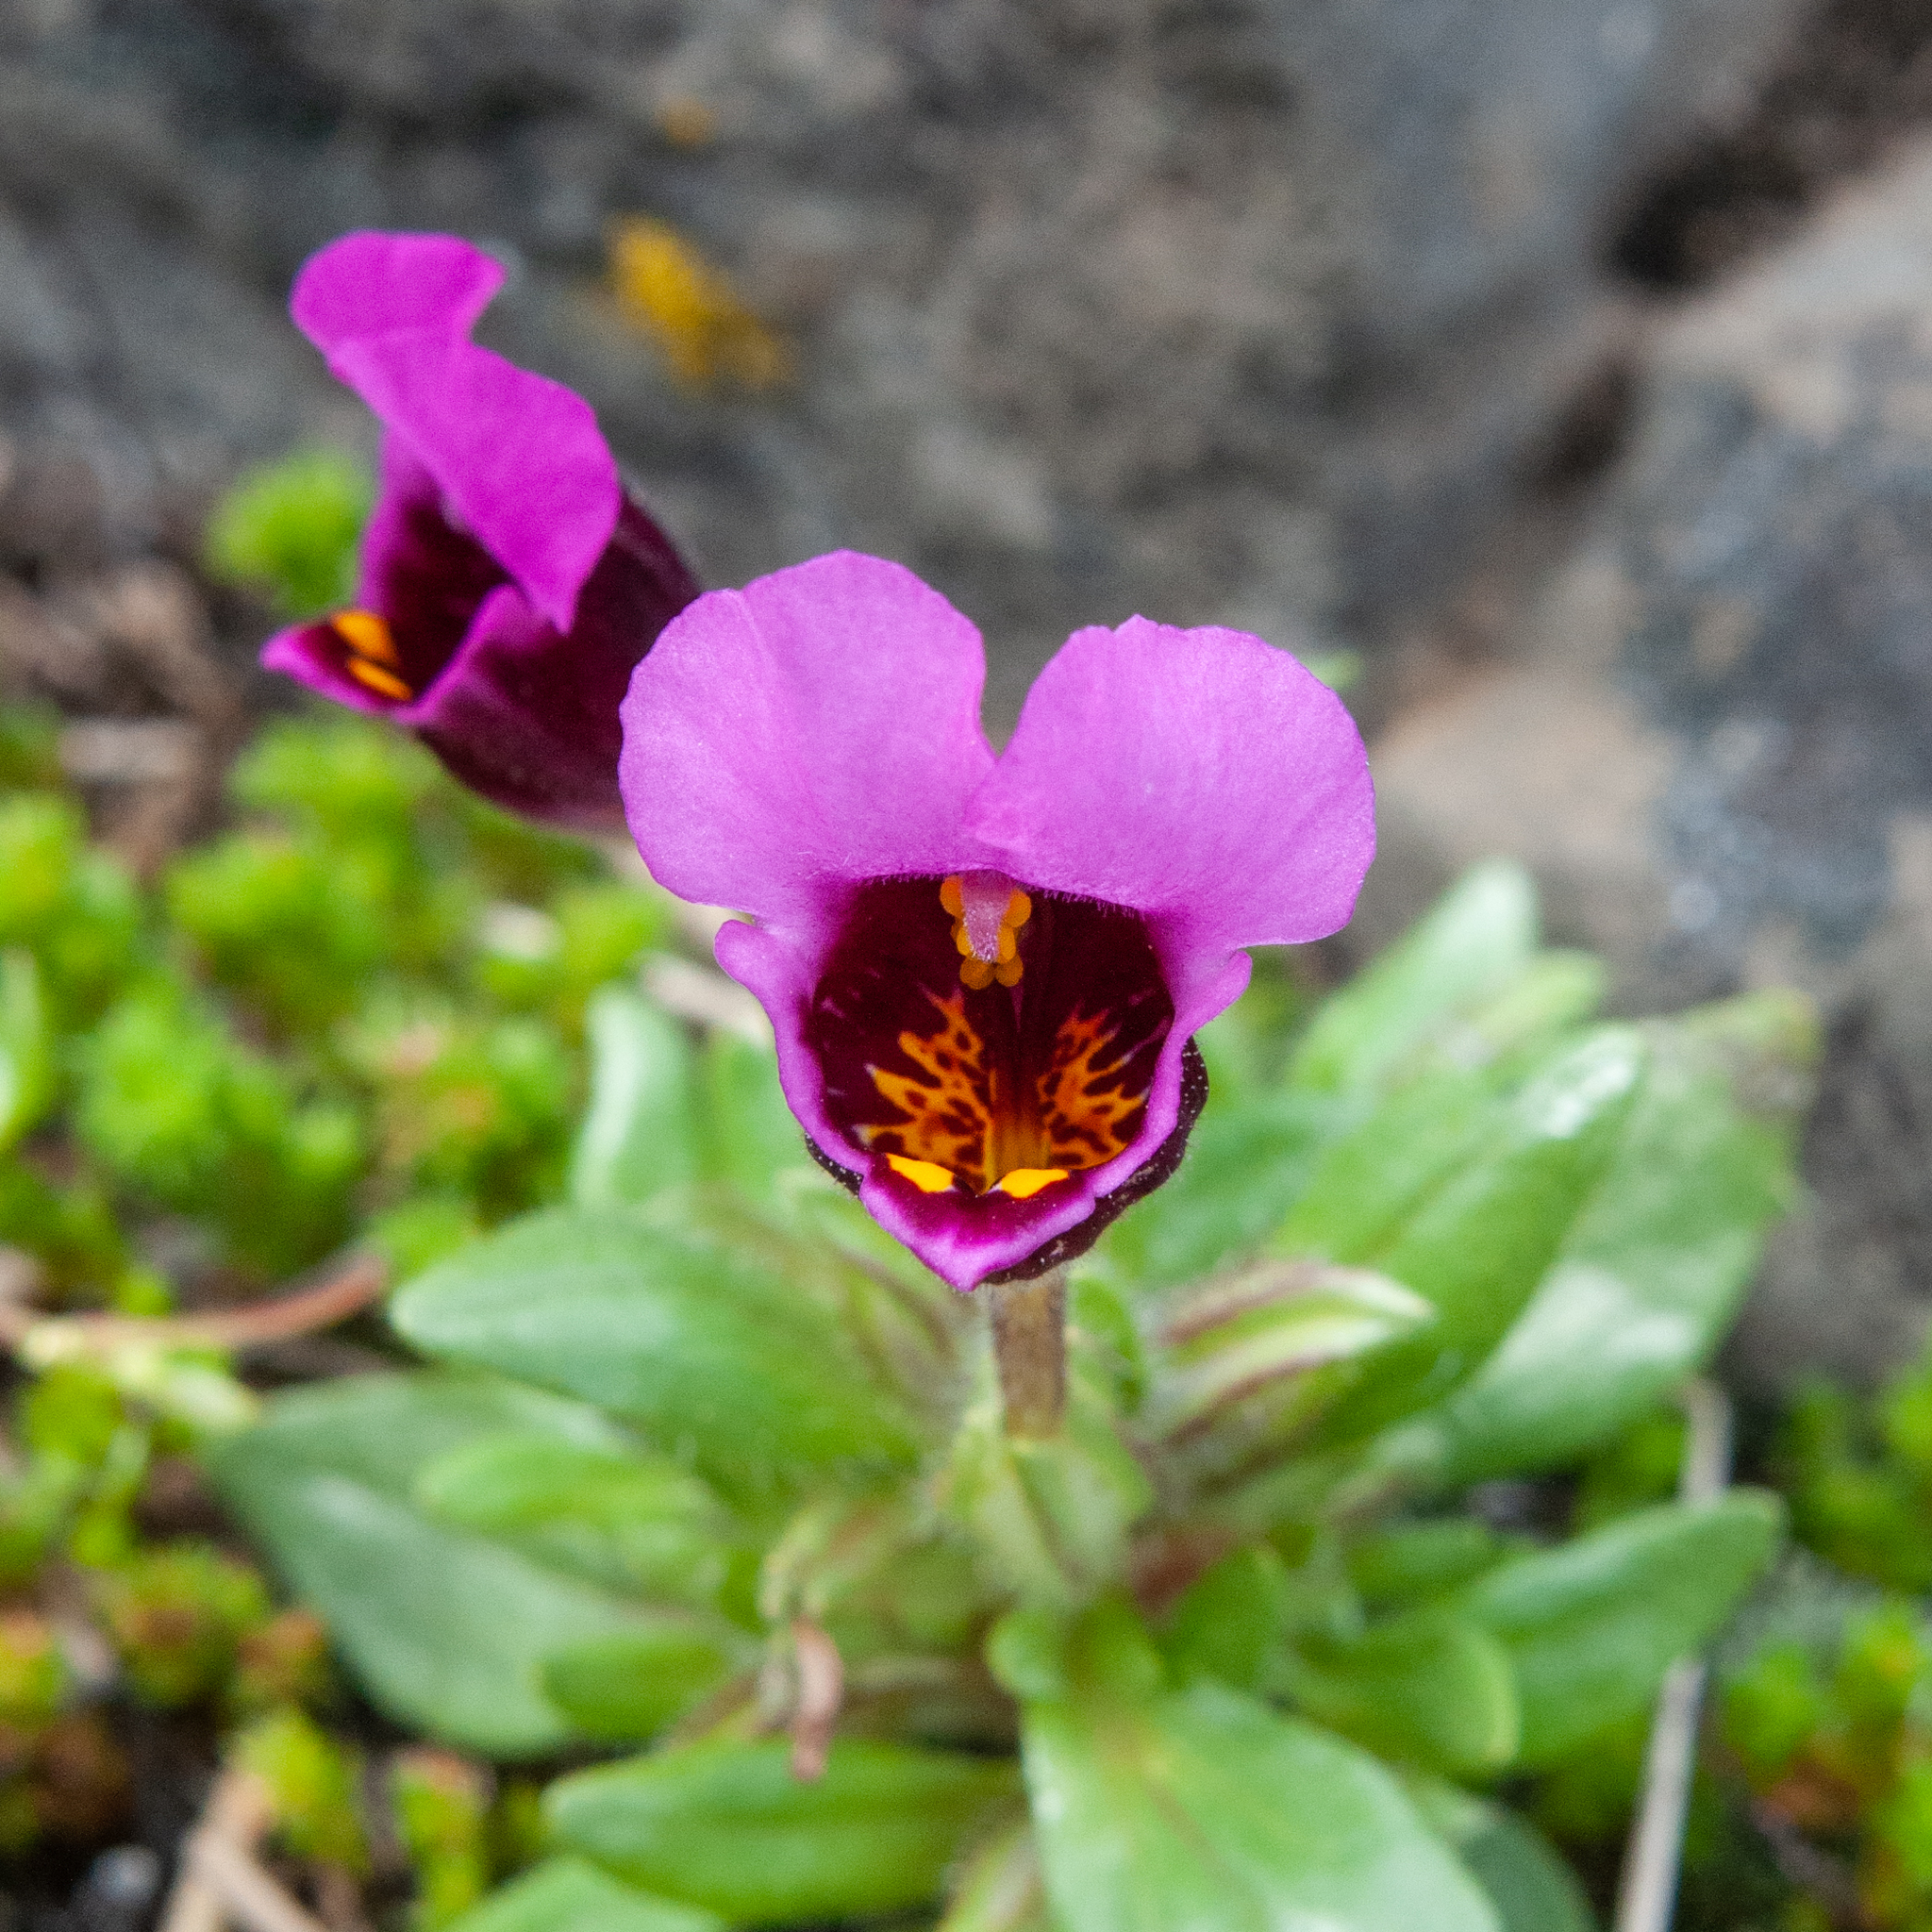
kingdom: Plantae
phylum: Tracheophyta
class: Magnoliopsida
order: Lamiales
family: Phrymaceae
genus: Diplacus
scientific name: Diplacus douglasii
